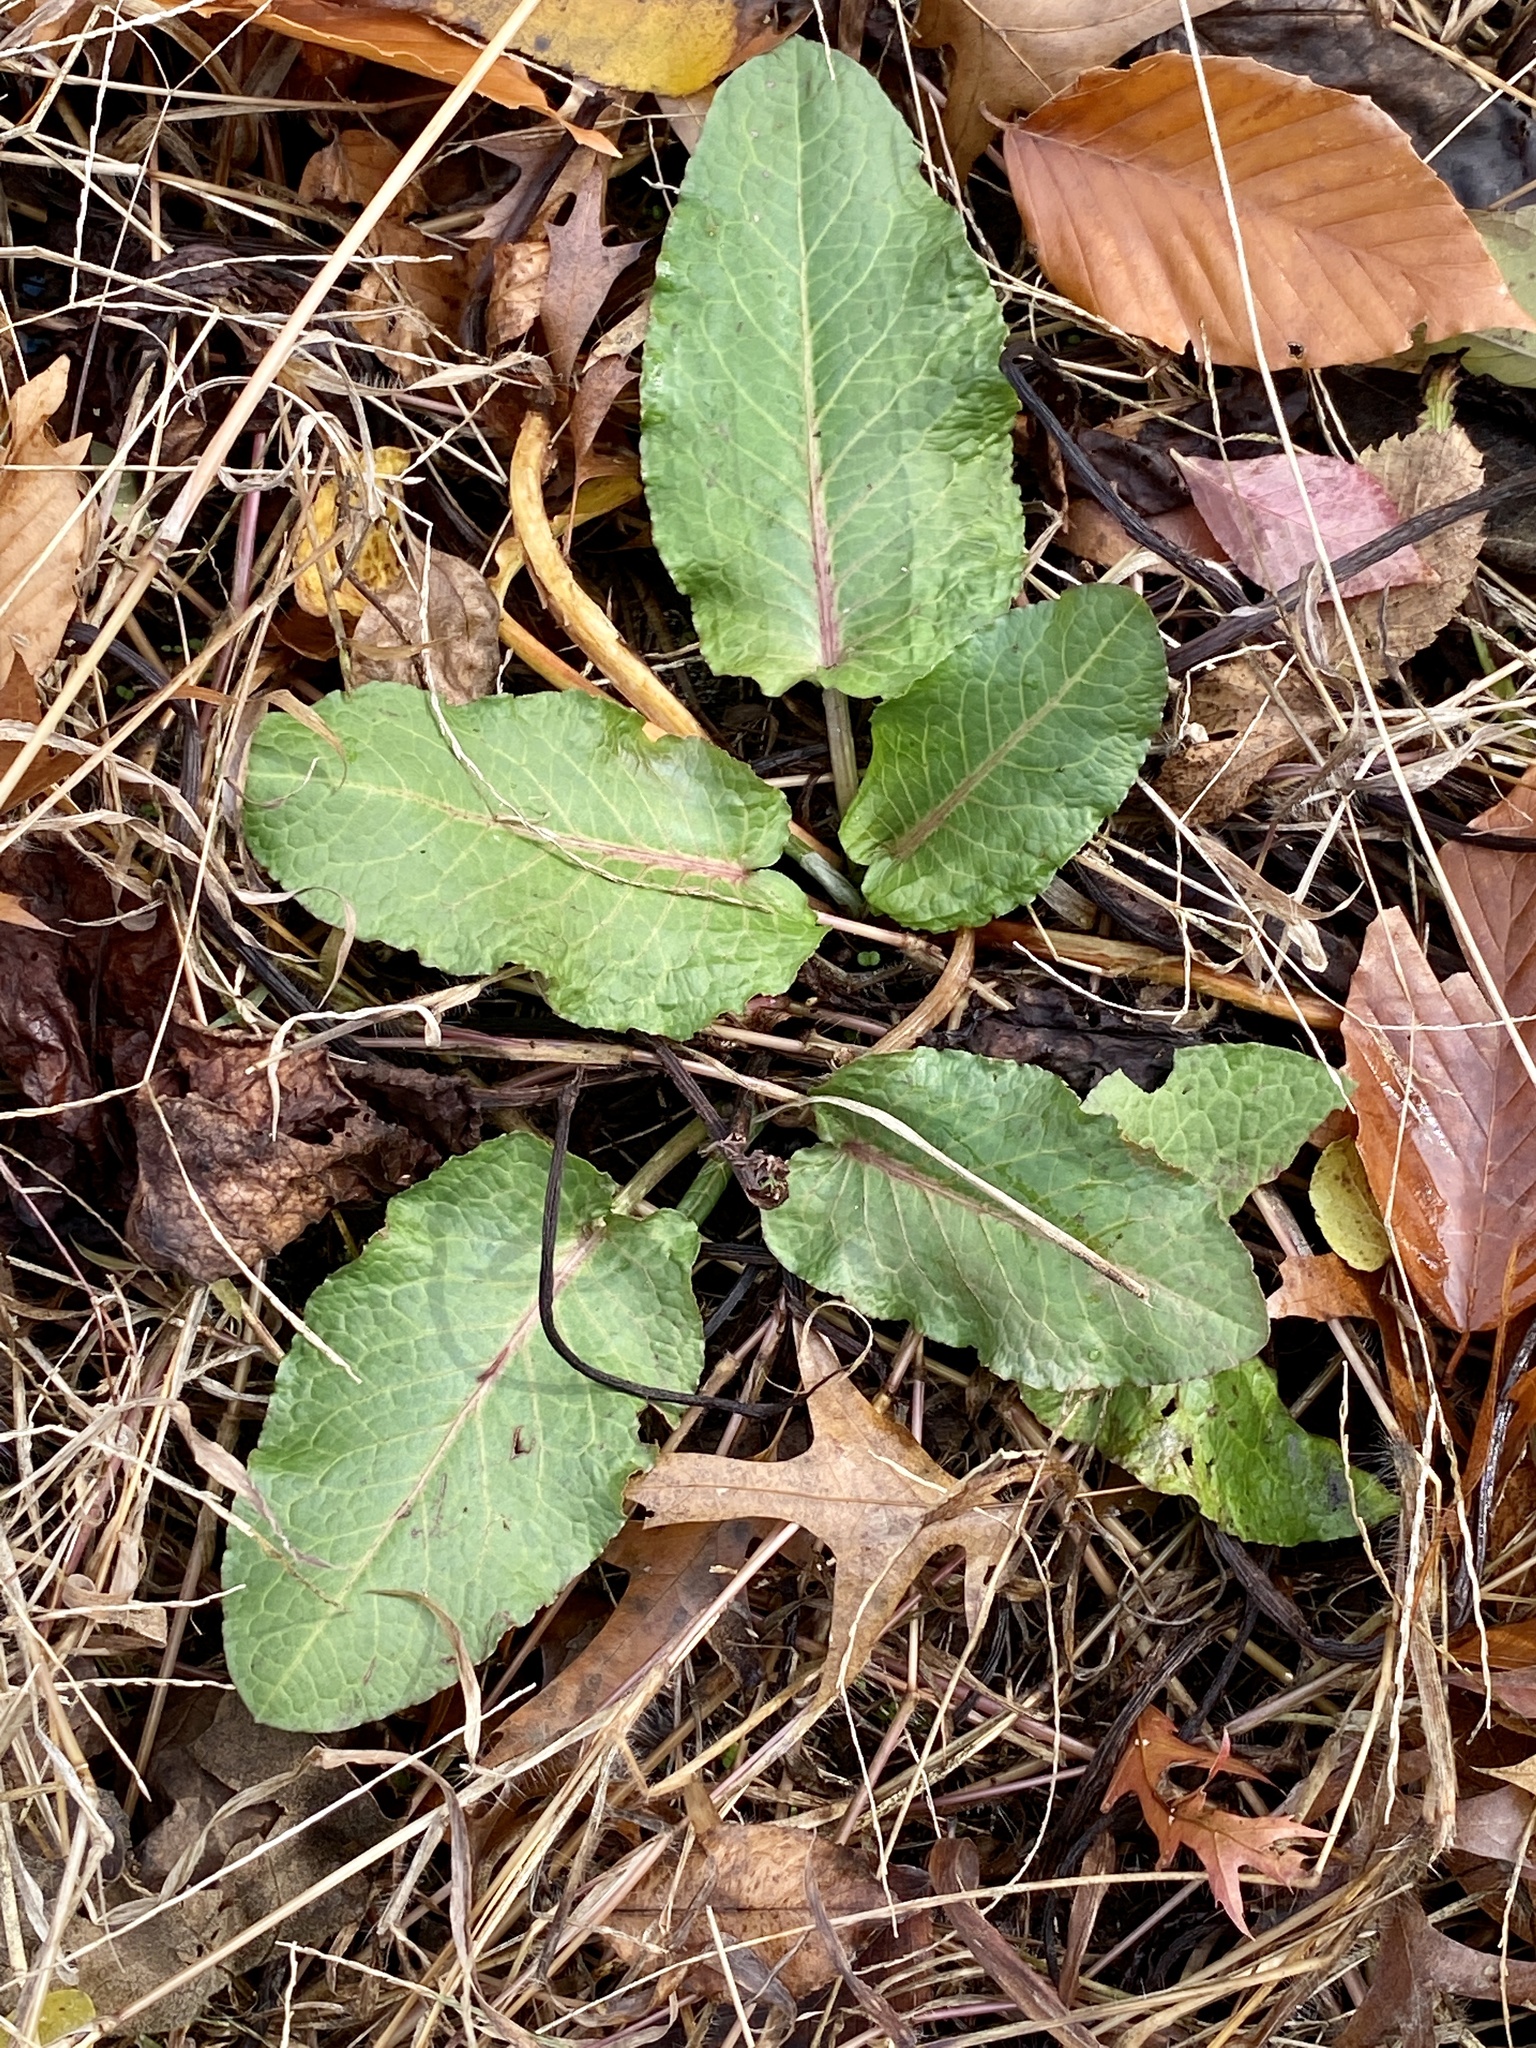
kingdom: Plantae
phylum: Tracheophyta
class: Magnoliopsida
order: Caryophyllales
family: Polygonaceae
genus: Rumex
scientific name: Rumex obtusifolius
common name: Bitter dock
